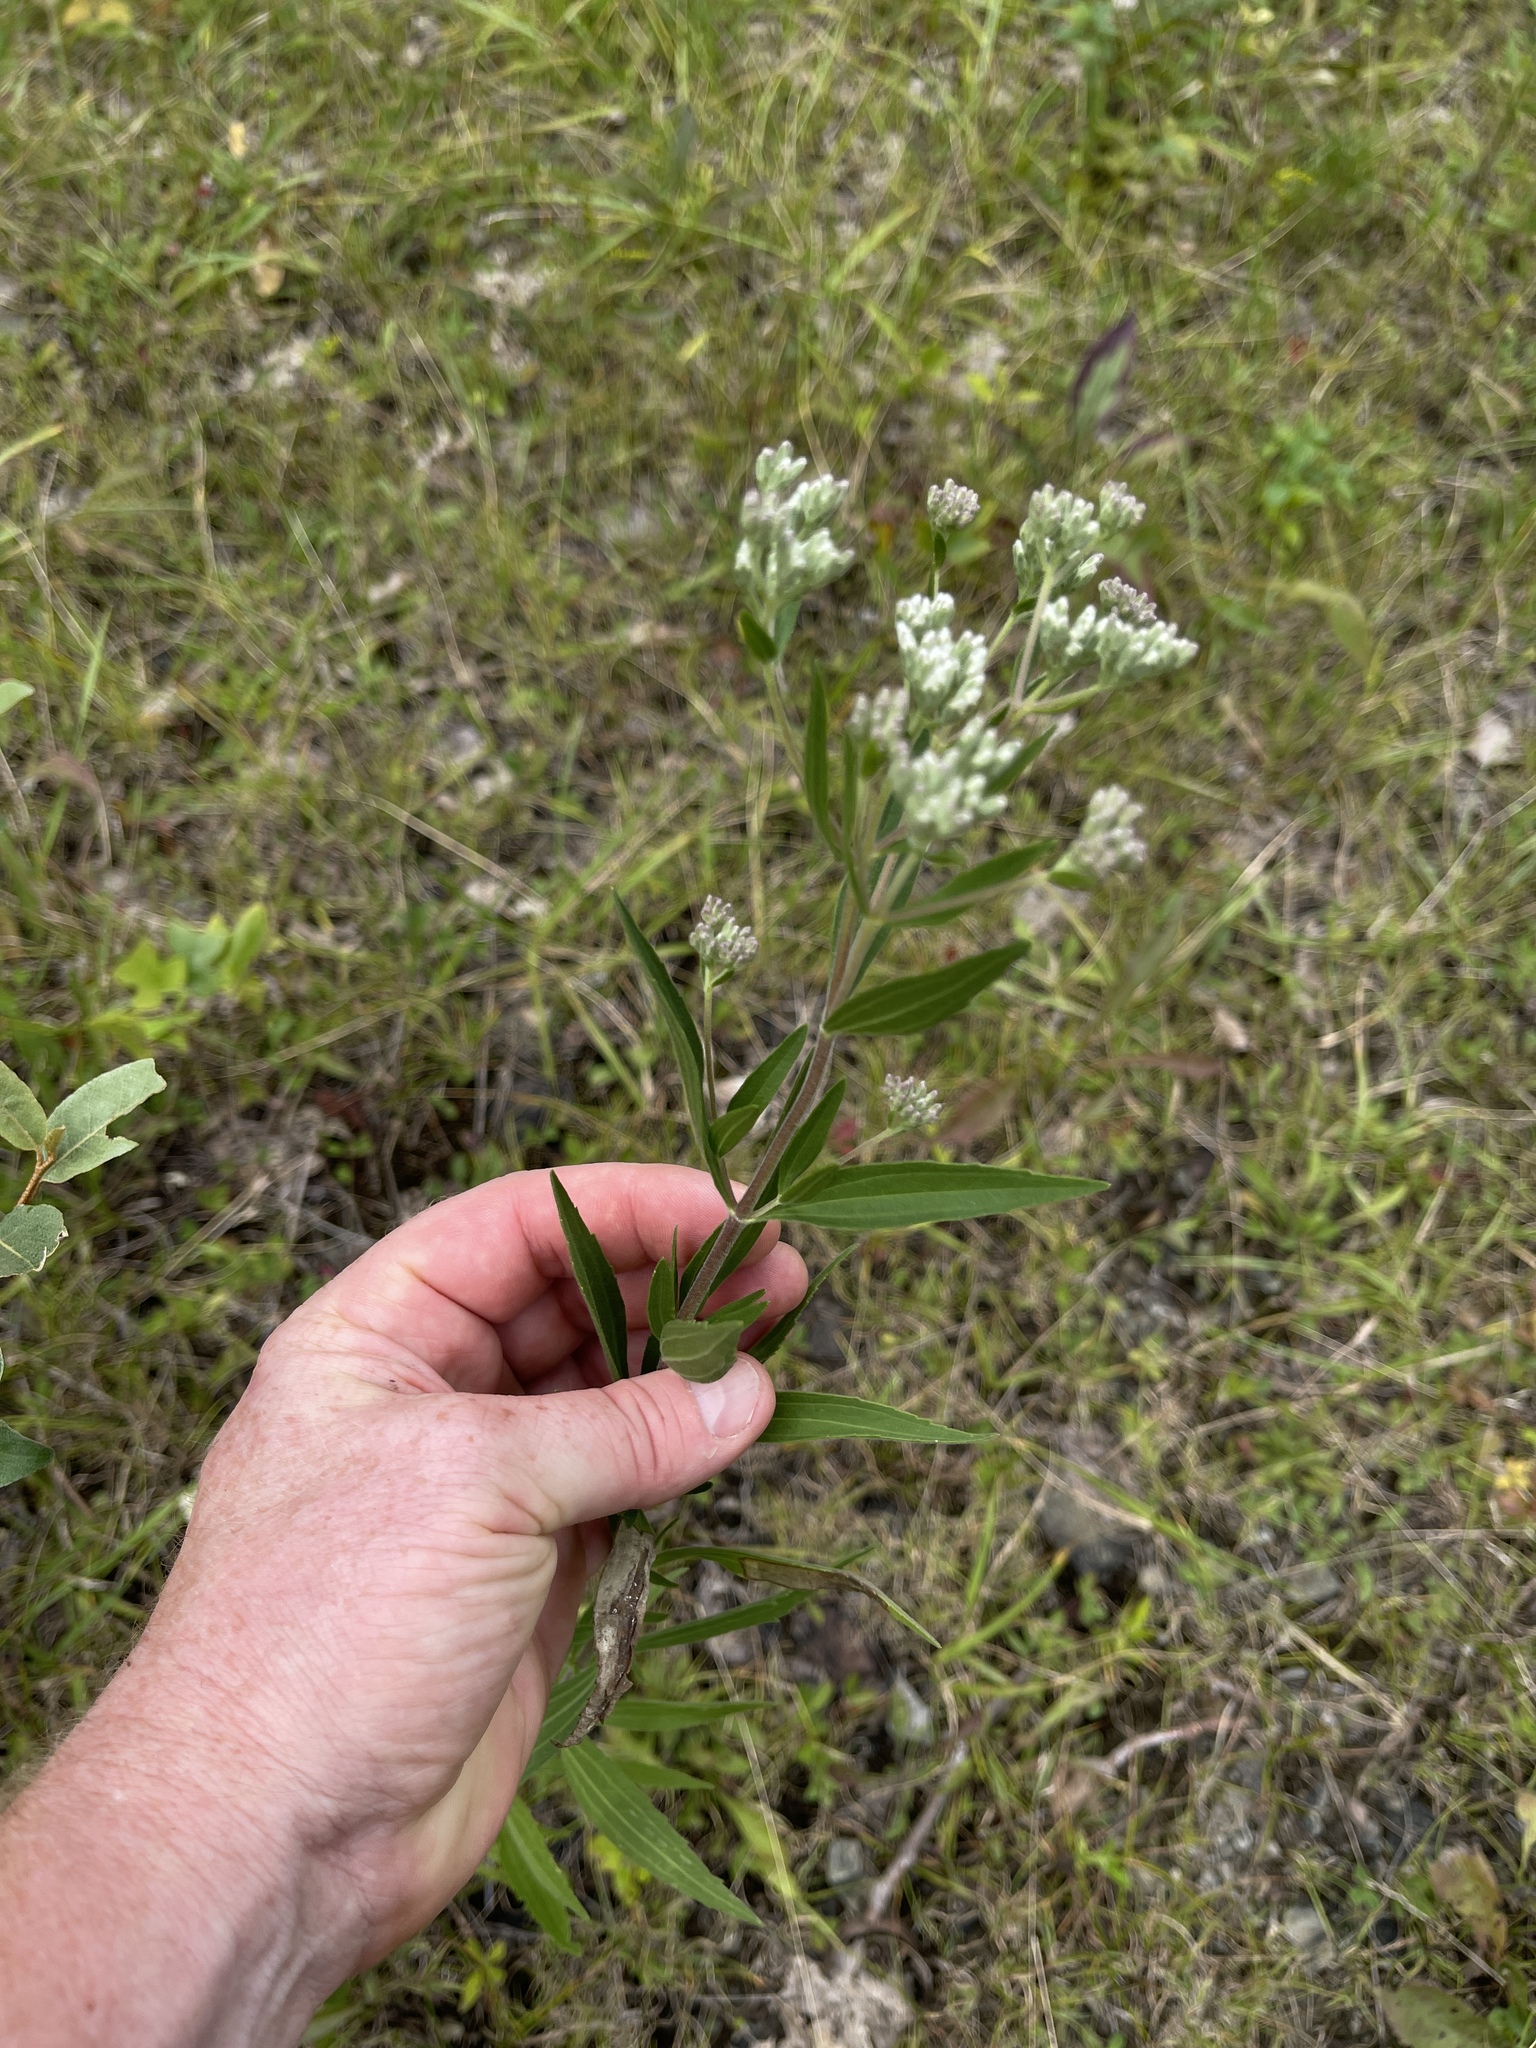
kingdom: Plantae
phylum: Tracheophyta
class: Magnoliopsida
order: Asterales
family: Asteraceae
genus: Eupatorium
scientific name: Eupatorium altissimum
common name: Tall thoroughwort
